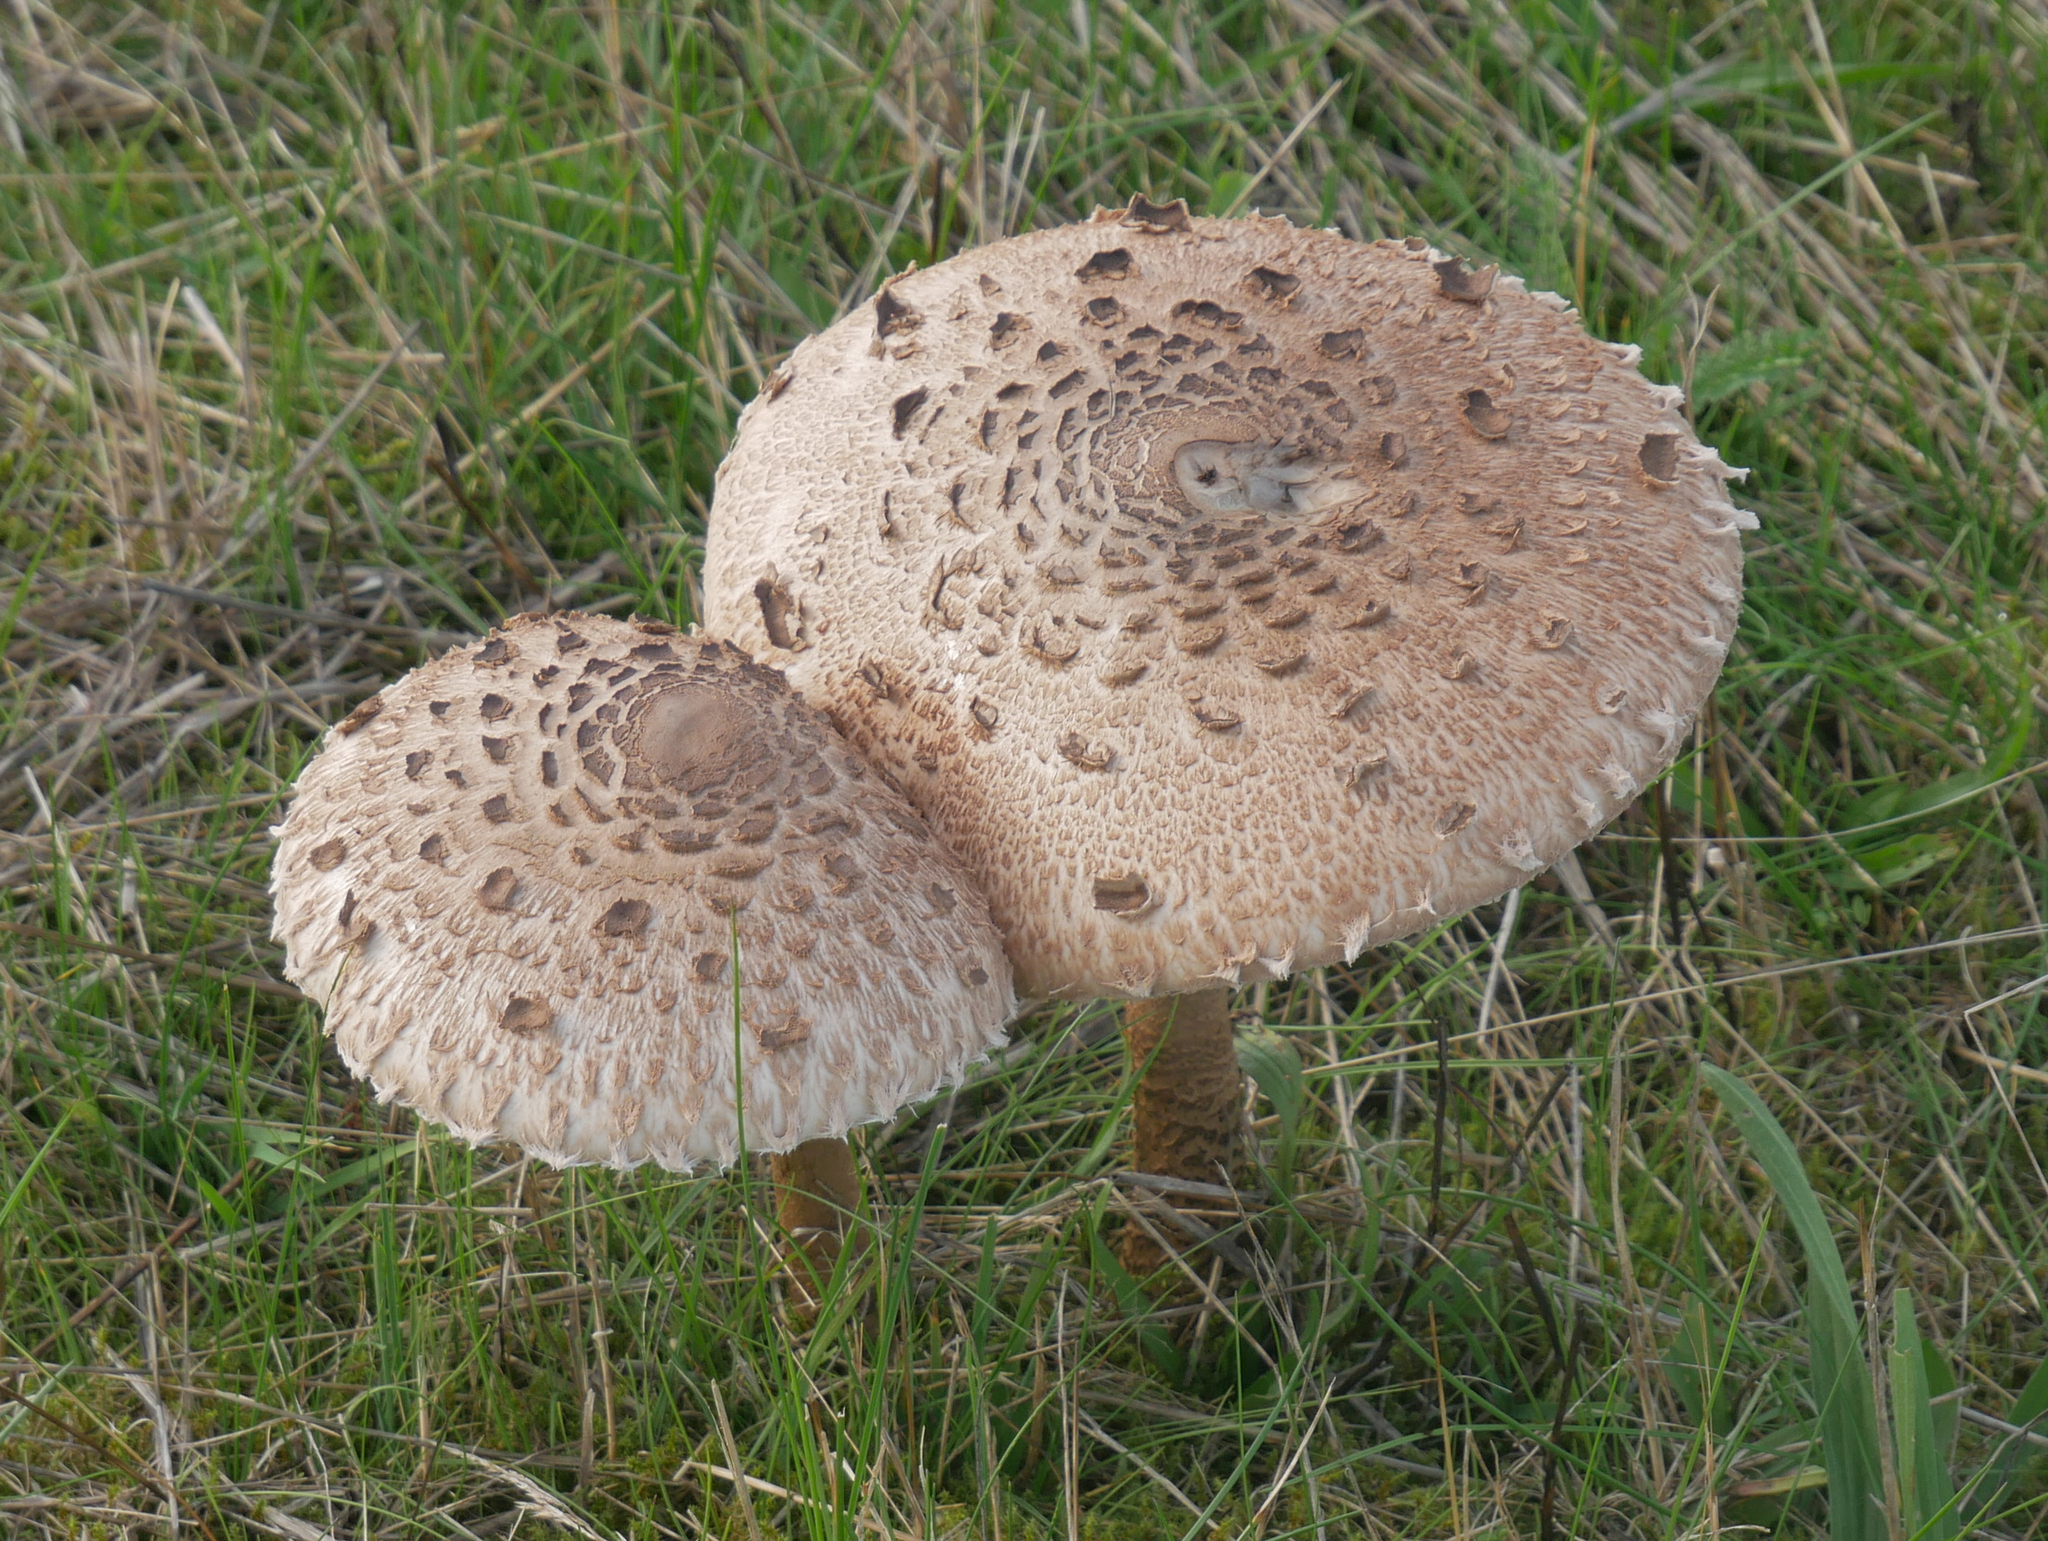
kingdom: Fungi
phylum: Basidiomycota
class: Agaricomycetes
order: Agaricales
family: Agaricaceae
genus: Macrolepiota
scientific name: Macrolepiota procera
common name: Parasol
